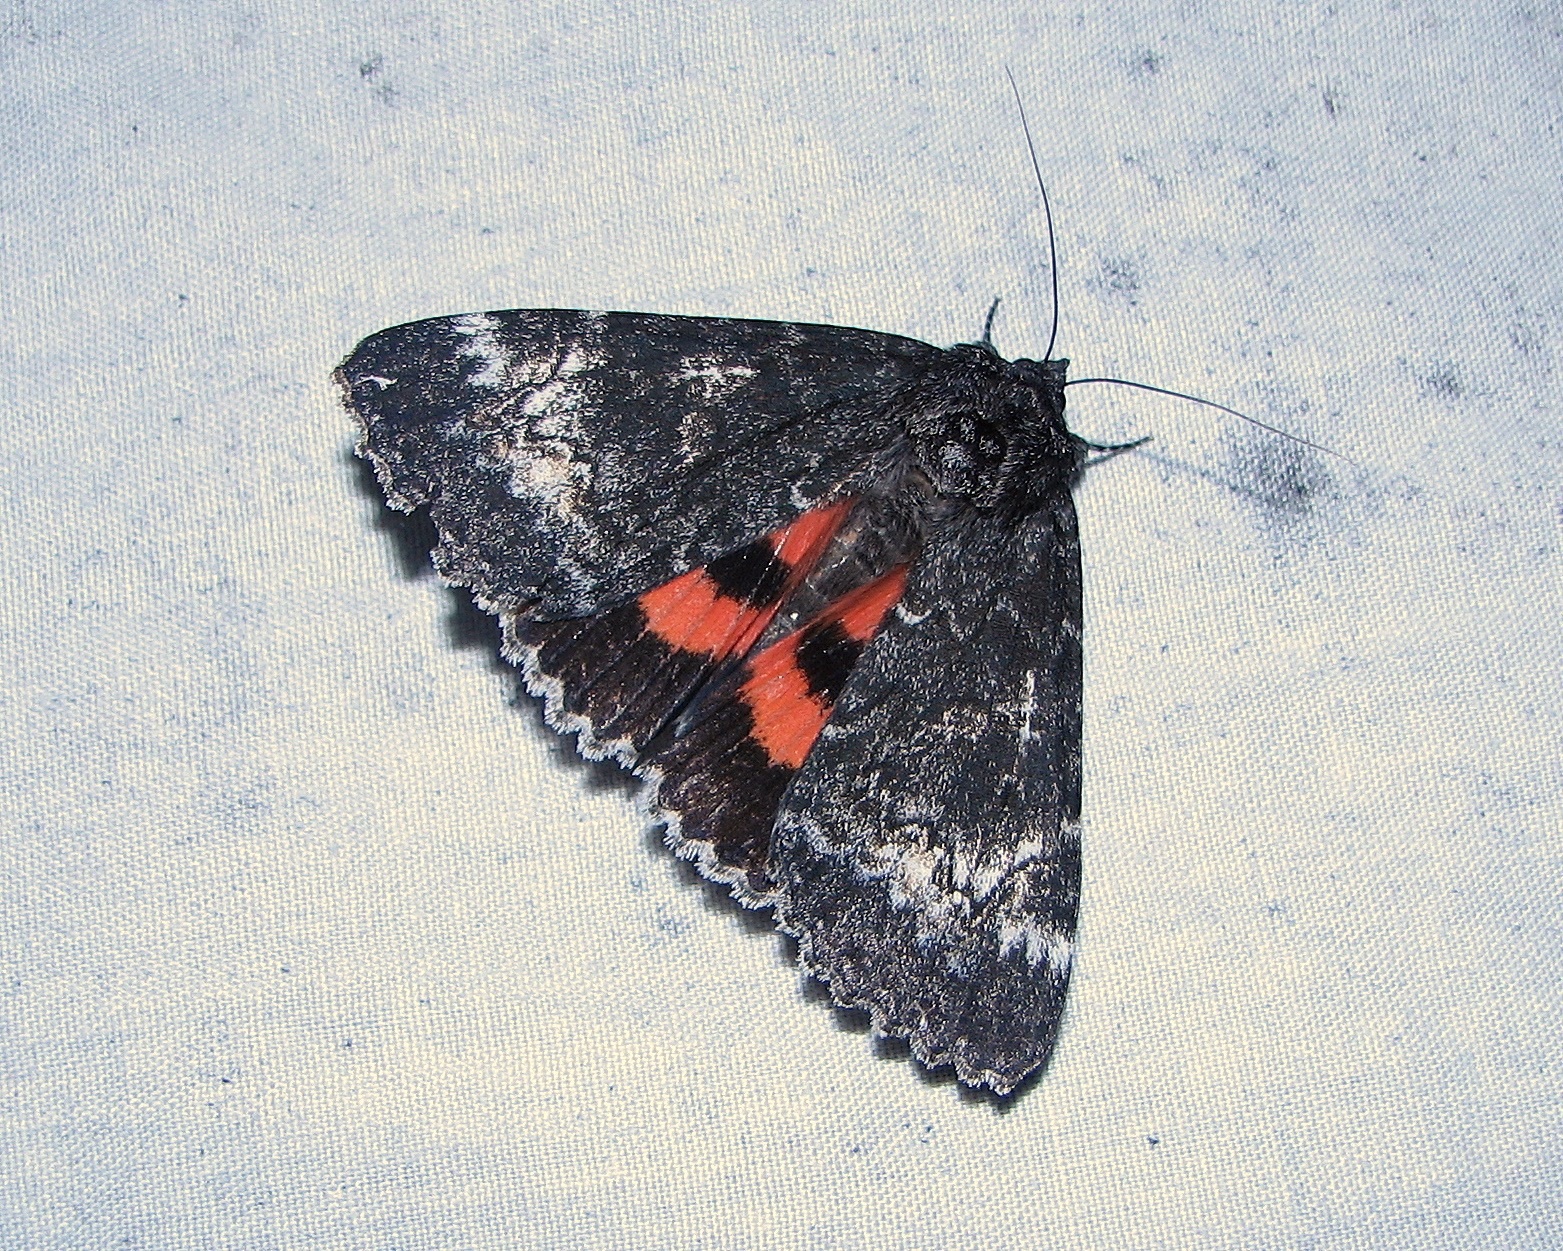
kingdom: Animalia
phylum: Arthropoda
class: Insecta
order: Lepidoptera
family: Erebidae
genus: Catocala
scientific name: Catocala briseis
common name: Briseis underwing
